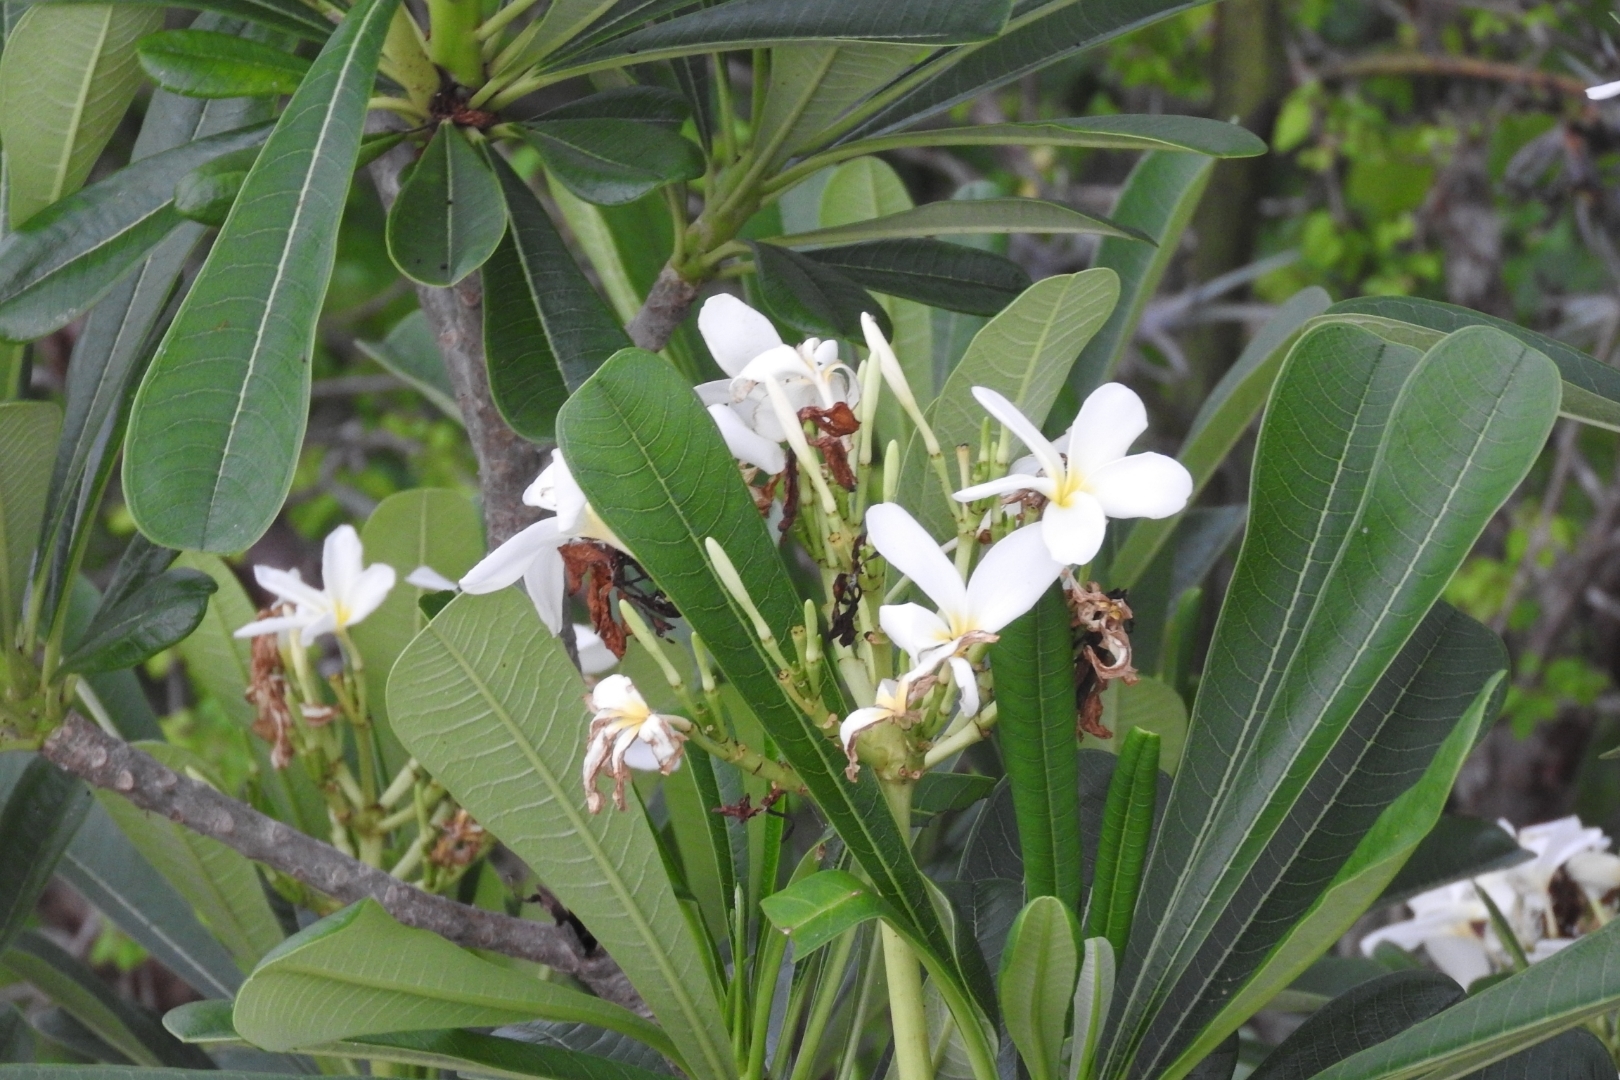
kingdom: Plantae
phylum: Tracheophyta
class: Magnoliopsida
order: Gentianales
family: Apocynaceae
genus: Plumeria
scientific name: Plumeria obtusa
